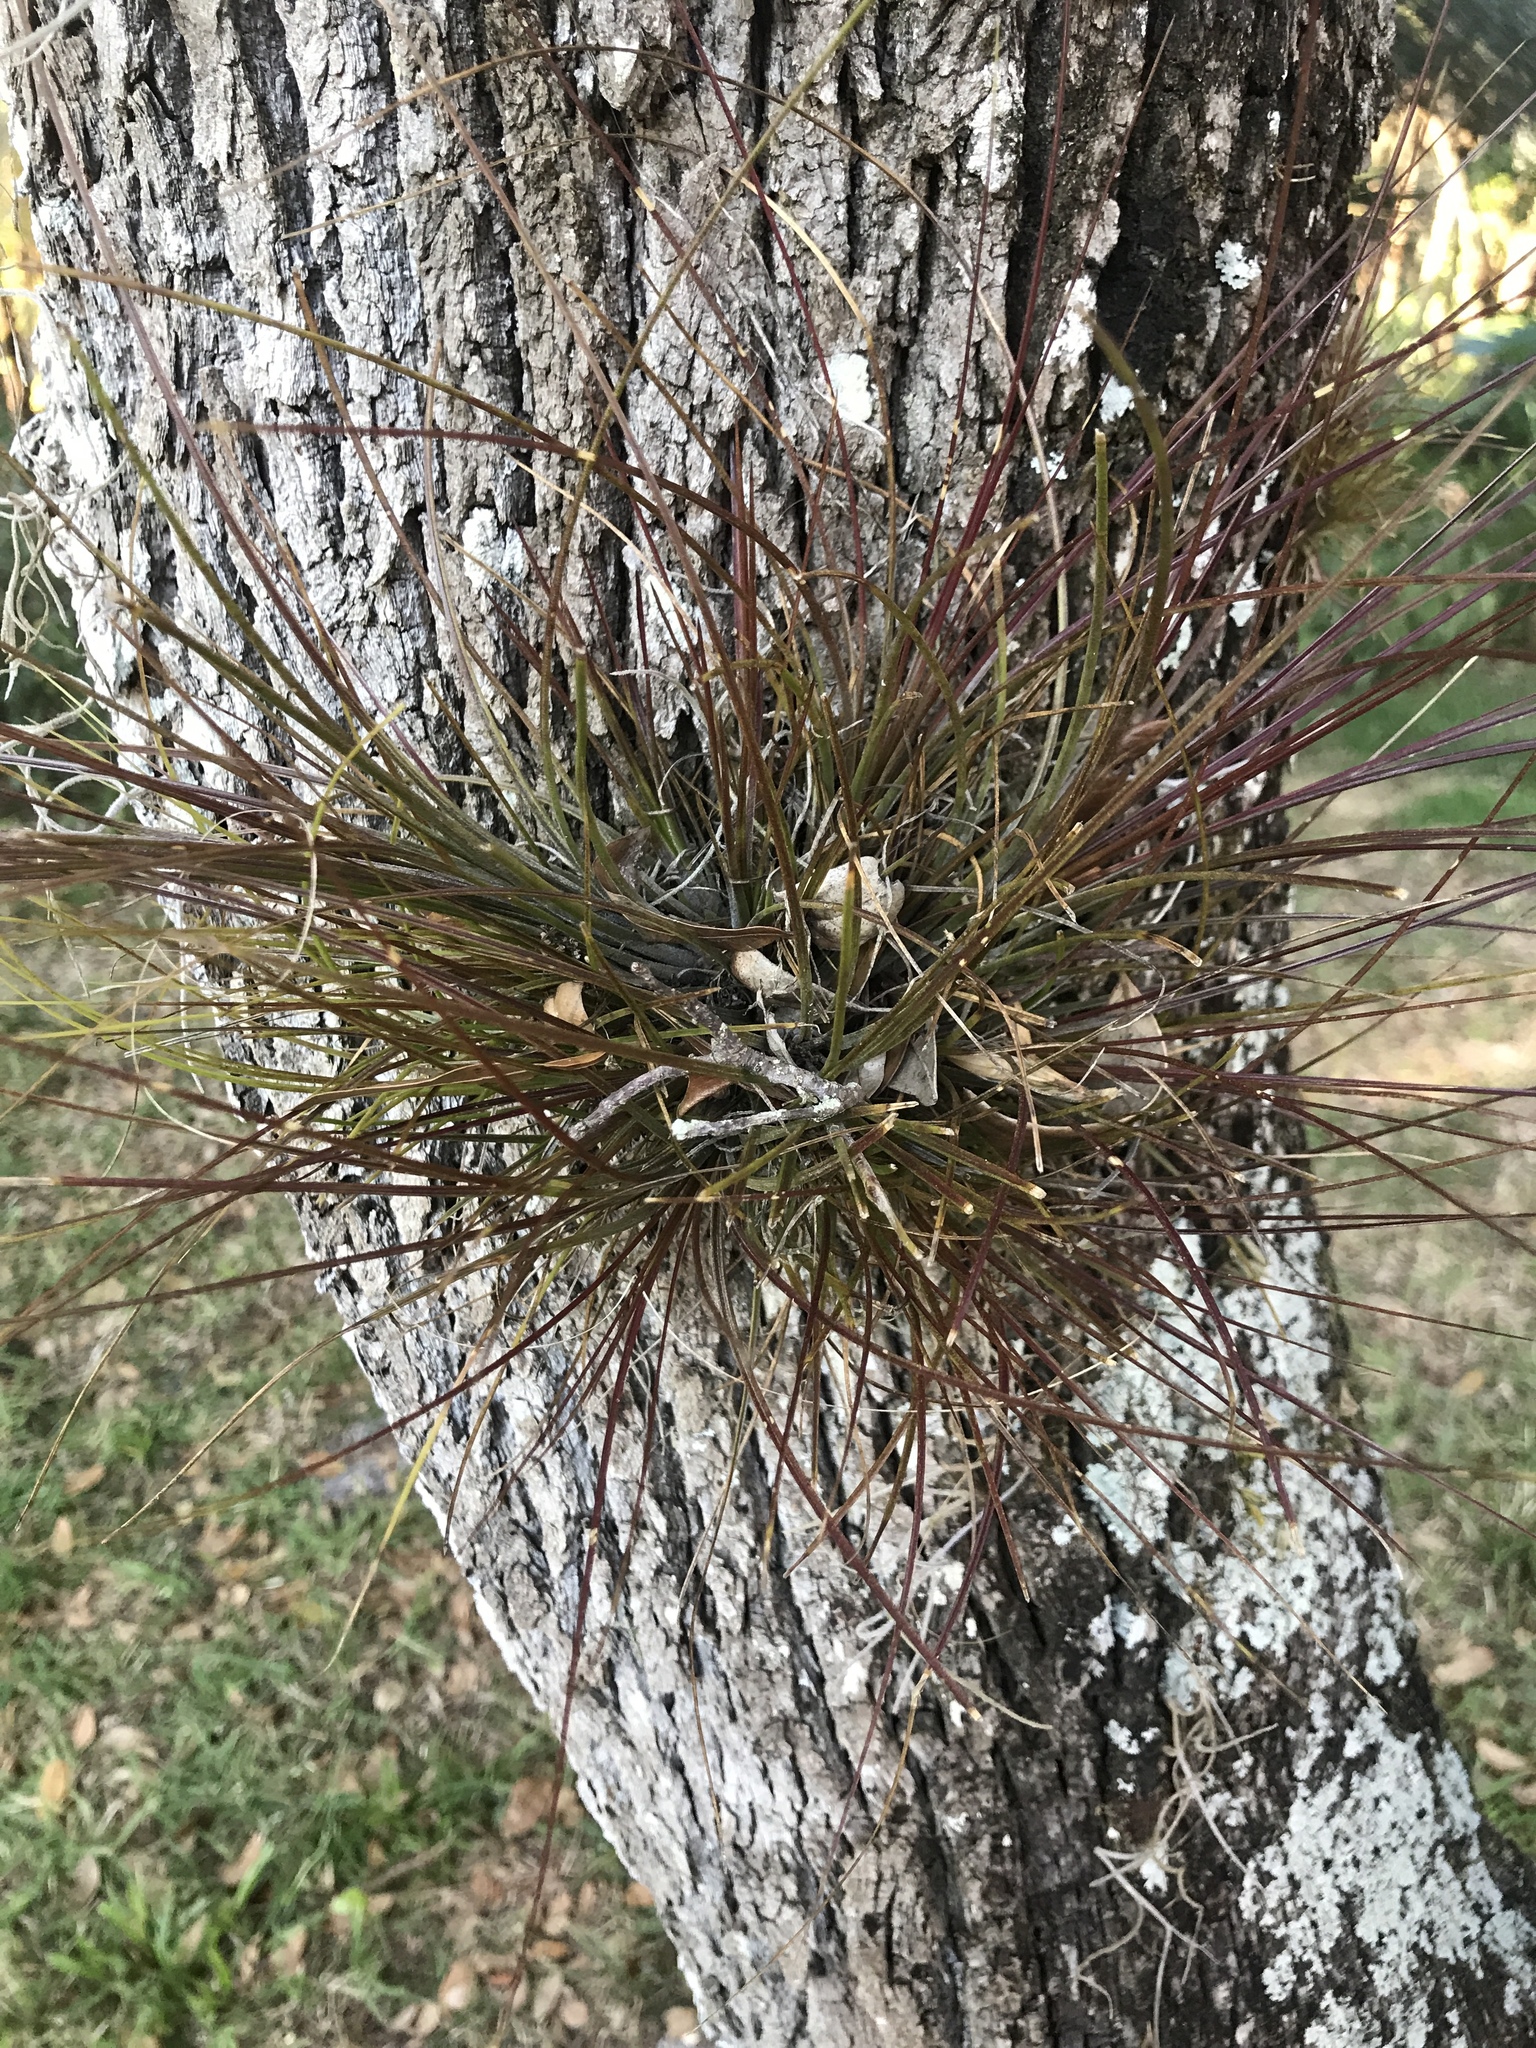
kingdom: Plantae
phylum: Tracheophyta
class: Liliopsida
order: Poales
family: Bromeliaceae
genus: Tillandsia
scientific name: Tillandsia setacea
